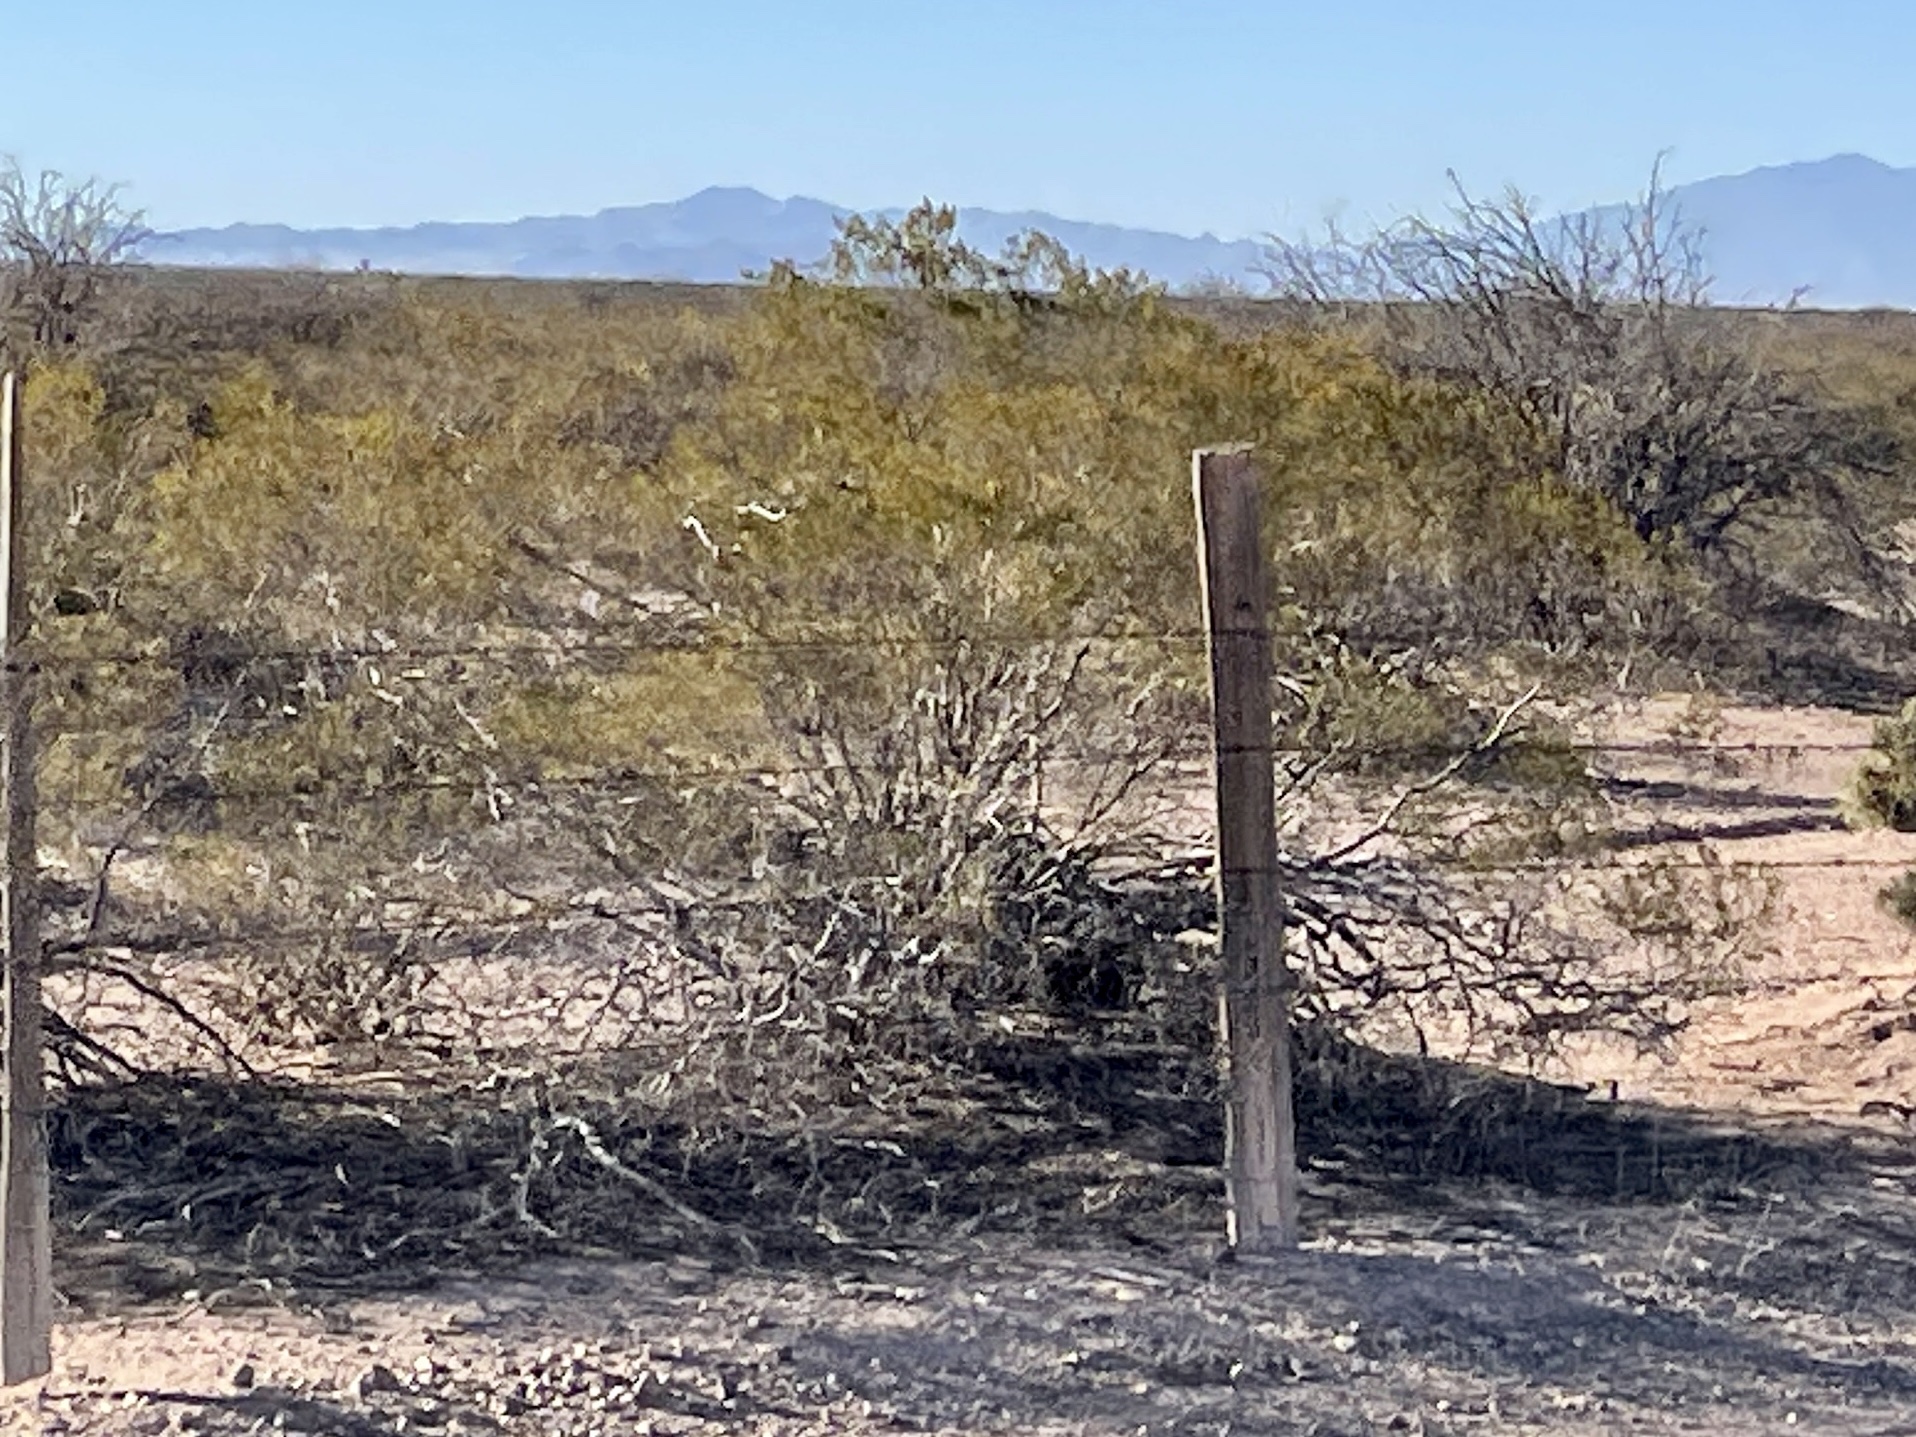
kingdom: Plantae
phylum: Tracheophyta
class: Magnoliopsida
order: Zygophyllales
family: Zygophyllaceae
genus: Larrea
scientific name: Larrea tridentata
